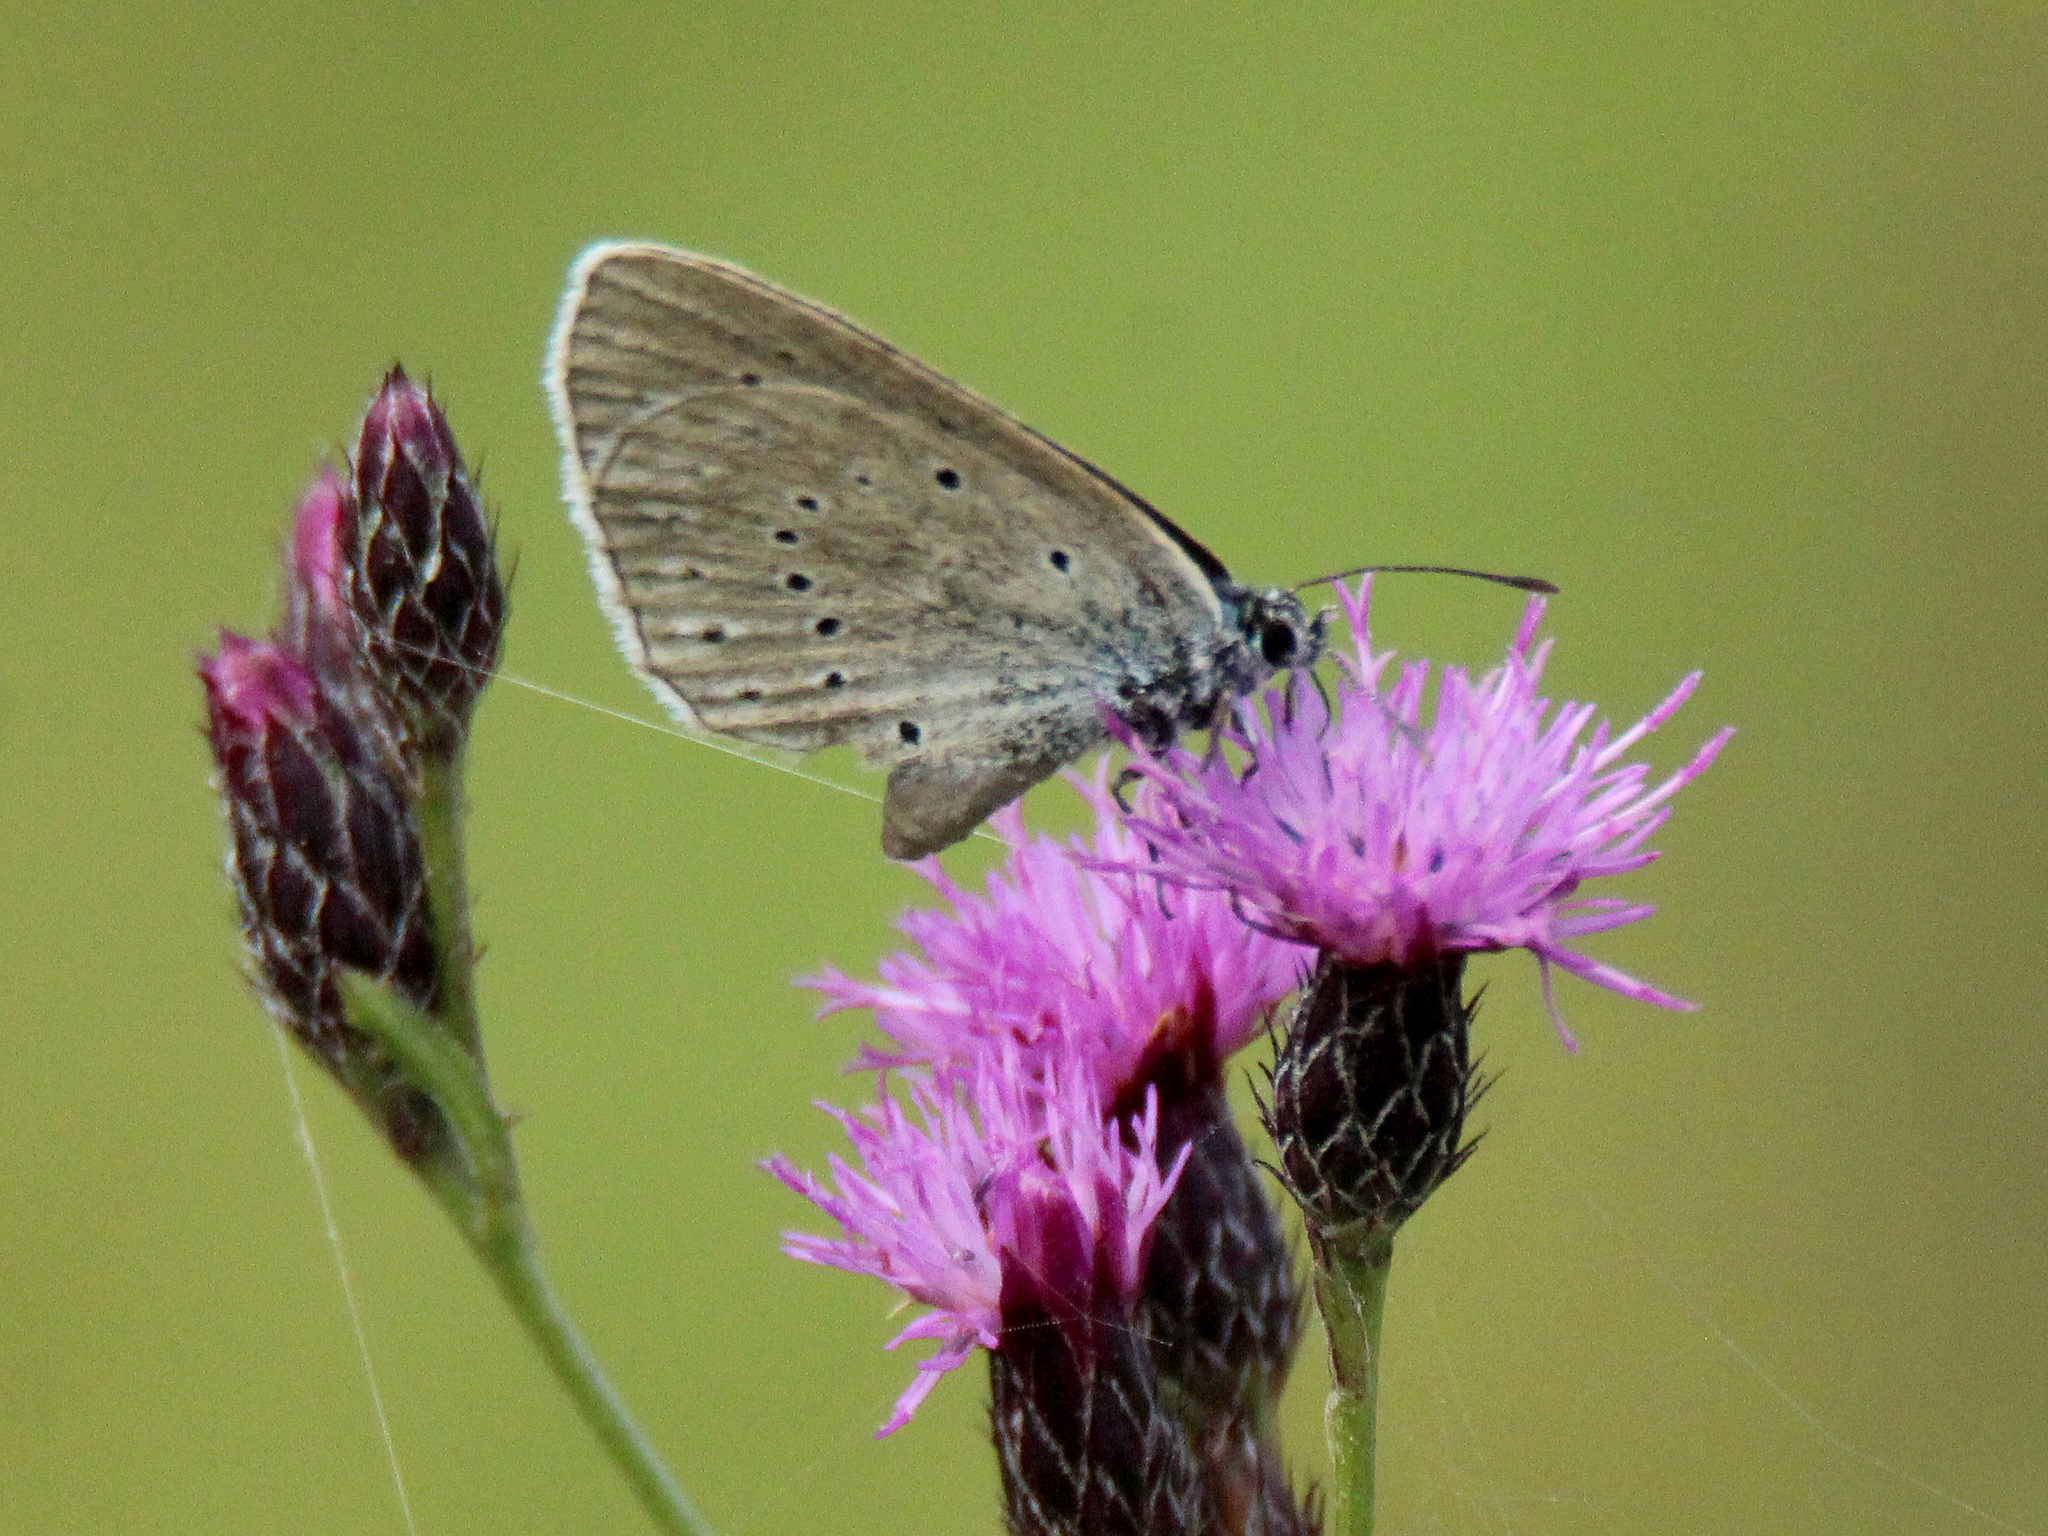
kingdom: Animalia
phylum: Arthropoda
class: Insecta
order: Lepidoptera
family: Lycaenidae
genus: Phengaris
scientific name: Phengaris teleius
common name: Scarce large blue
